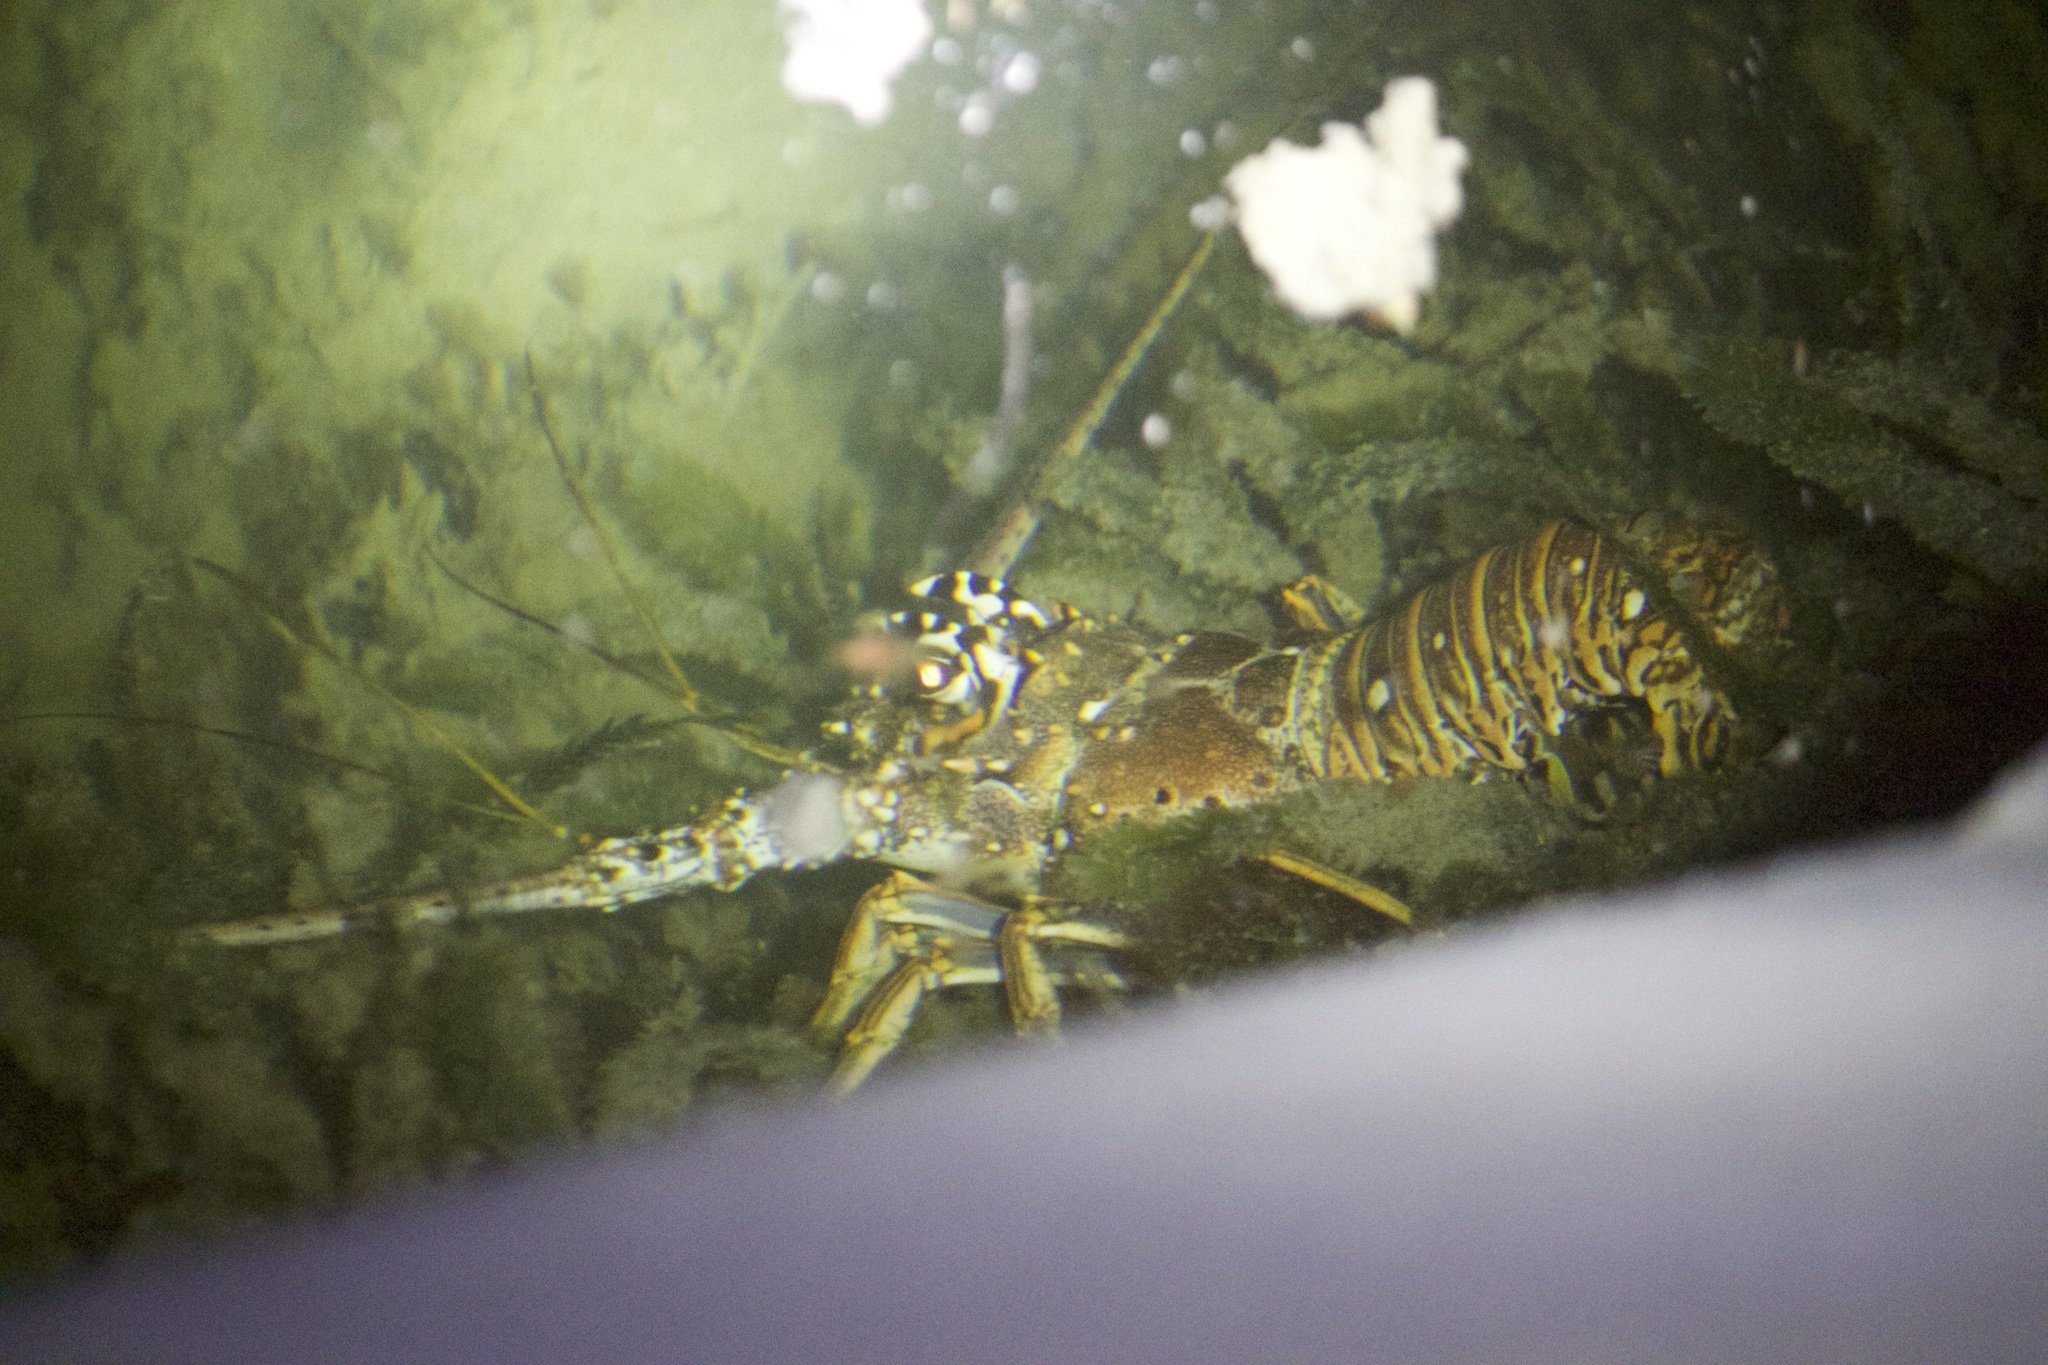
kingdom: Animalia
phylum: Arthropoda
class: Malacostraca
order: Decapoda
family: Palinuridae
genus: Panulirus
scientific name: Panulirus argus
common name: Caribbean spiny lobster
